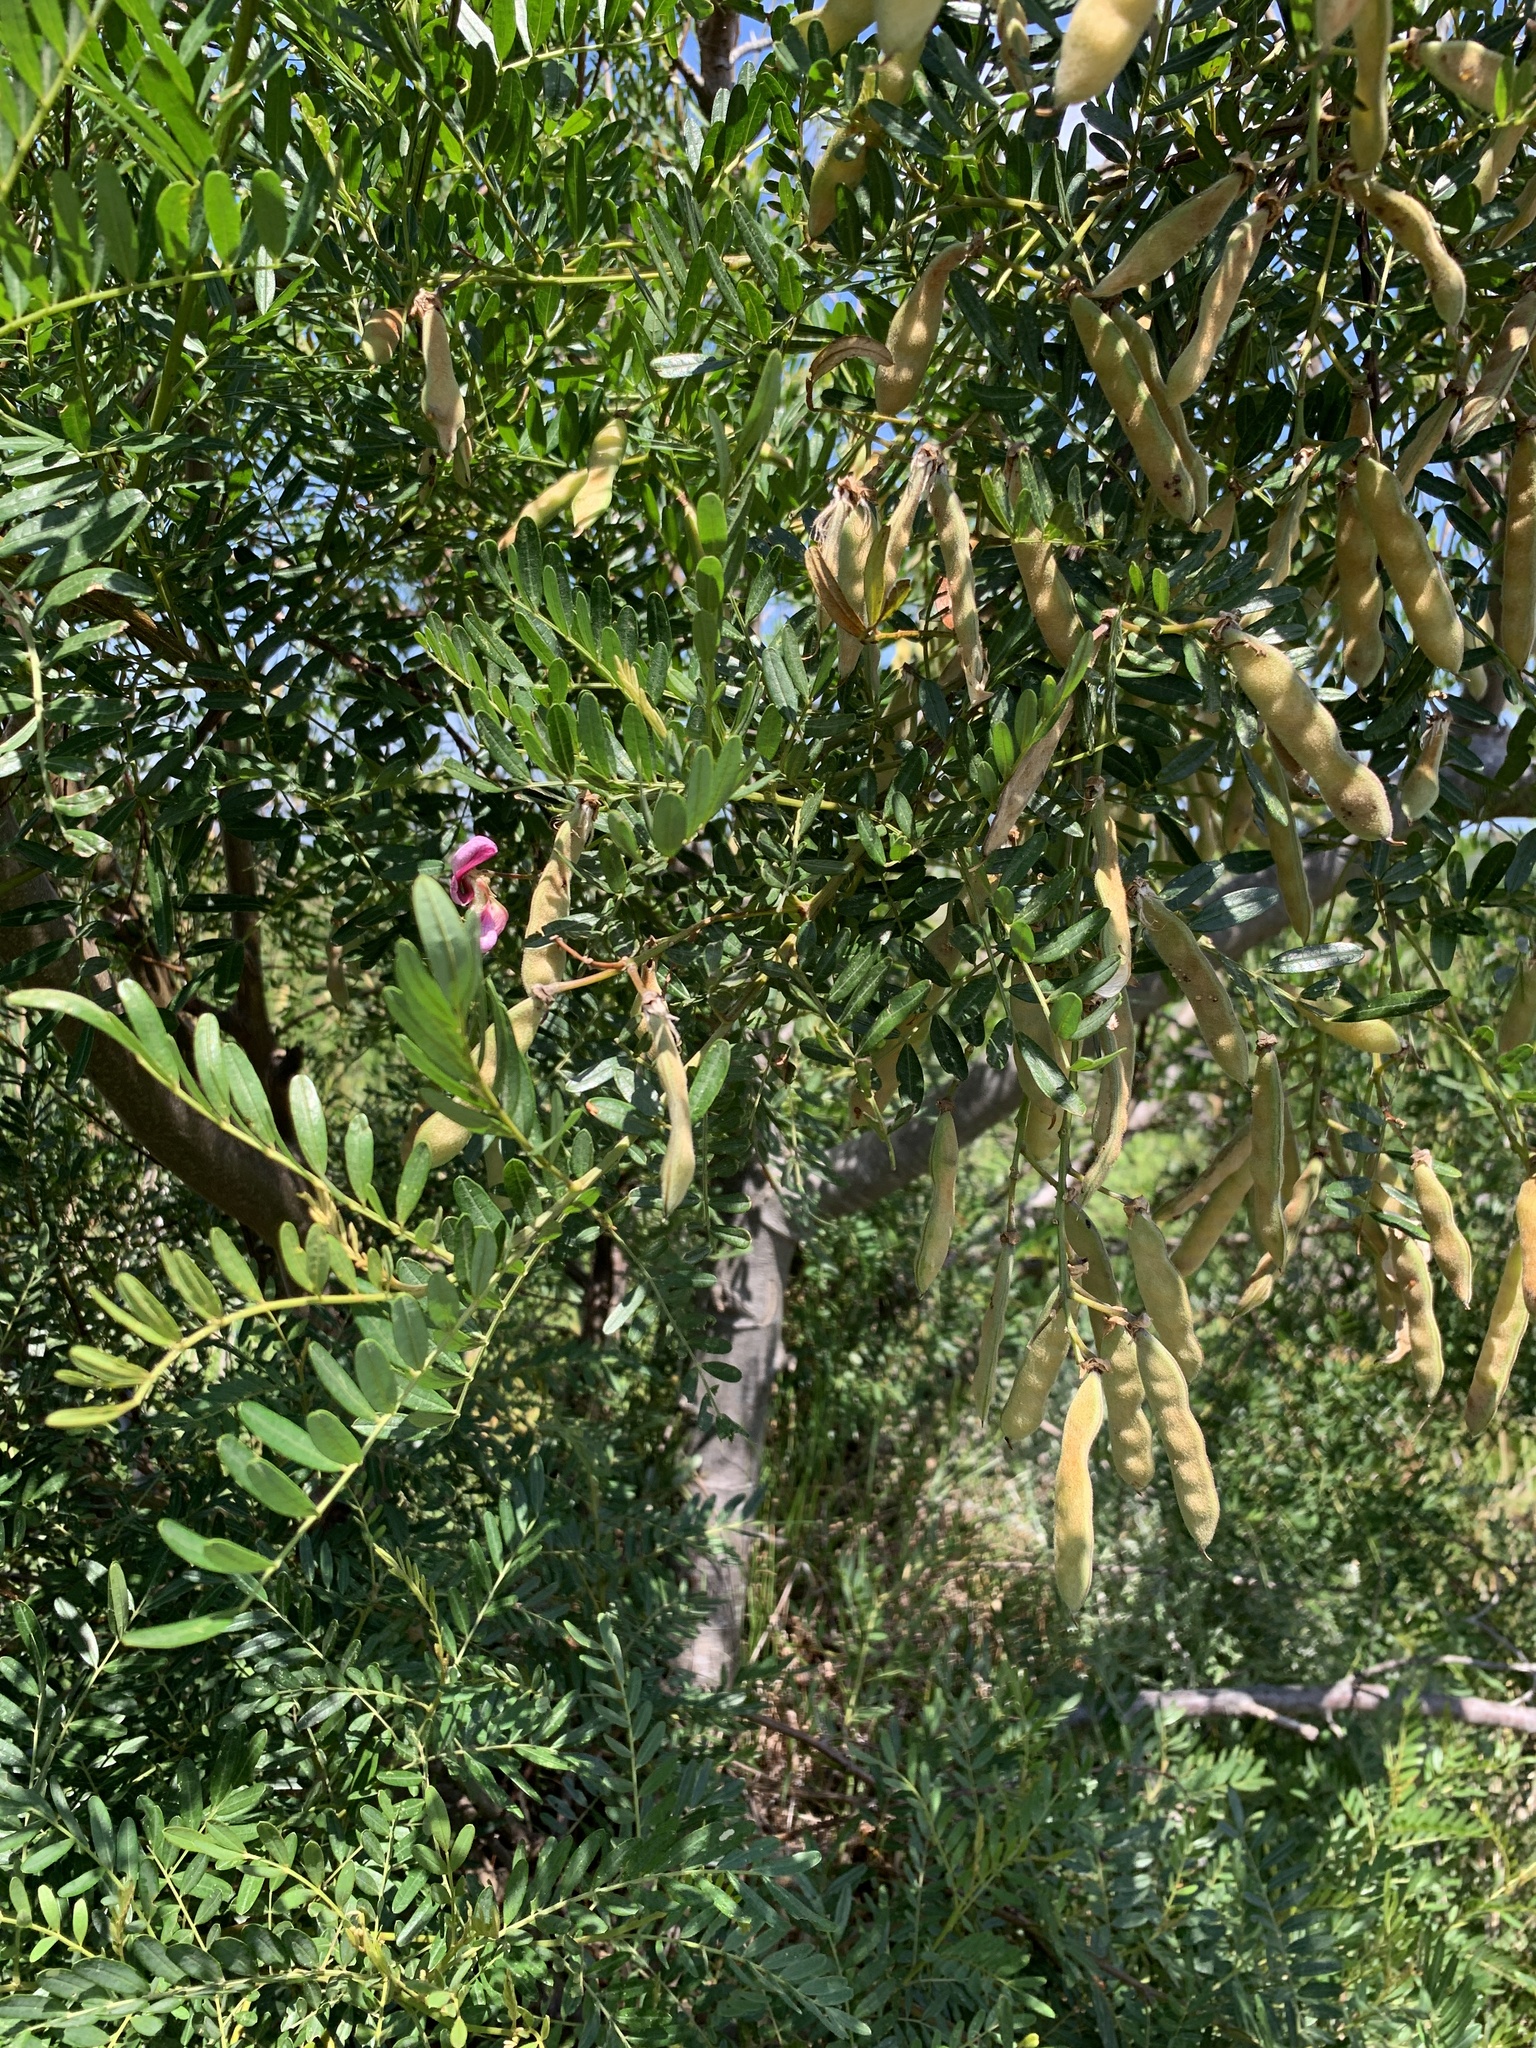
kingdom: Plantae
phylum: Tracheophyta
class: Magnoliopsida
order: Fabales
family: Fabaceae
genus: Virgilia
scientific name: Virgilia oroboides
